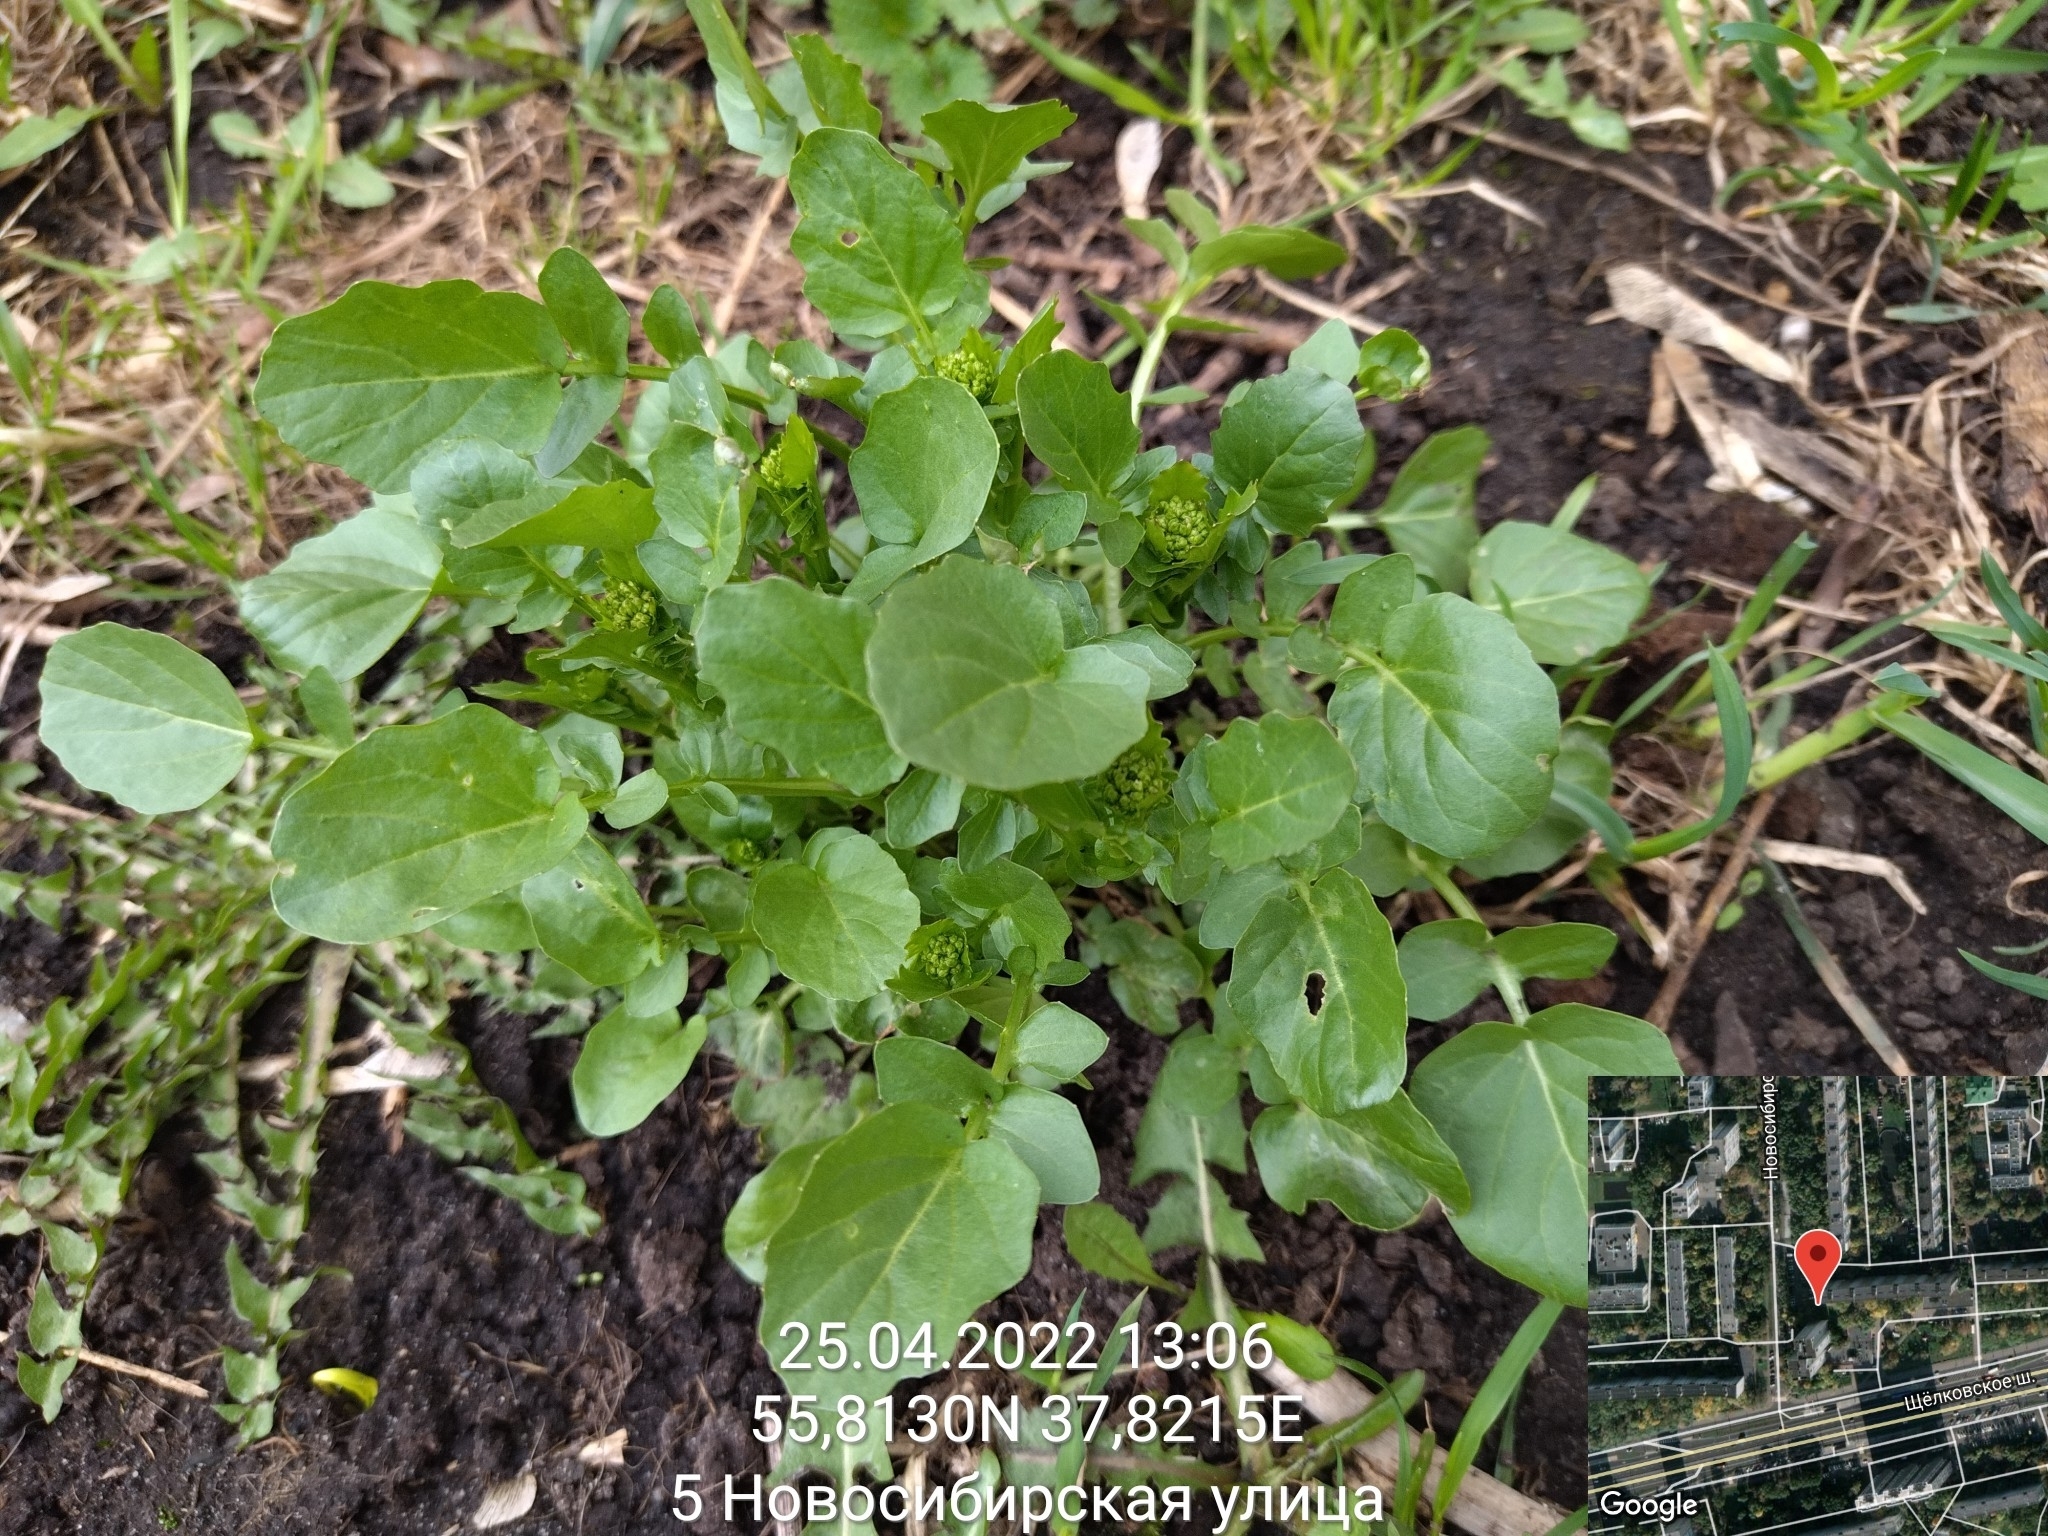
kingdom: Plantae
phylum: Tracheophyta
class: Magnoliopsida
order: Brassicales
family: Brassicaceae
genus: Barbarea
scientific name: Barbarea vulgaris
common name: Cressy-greens
